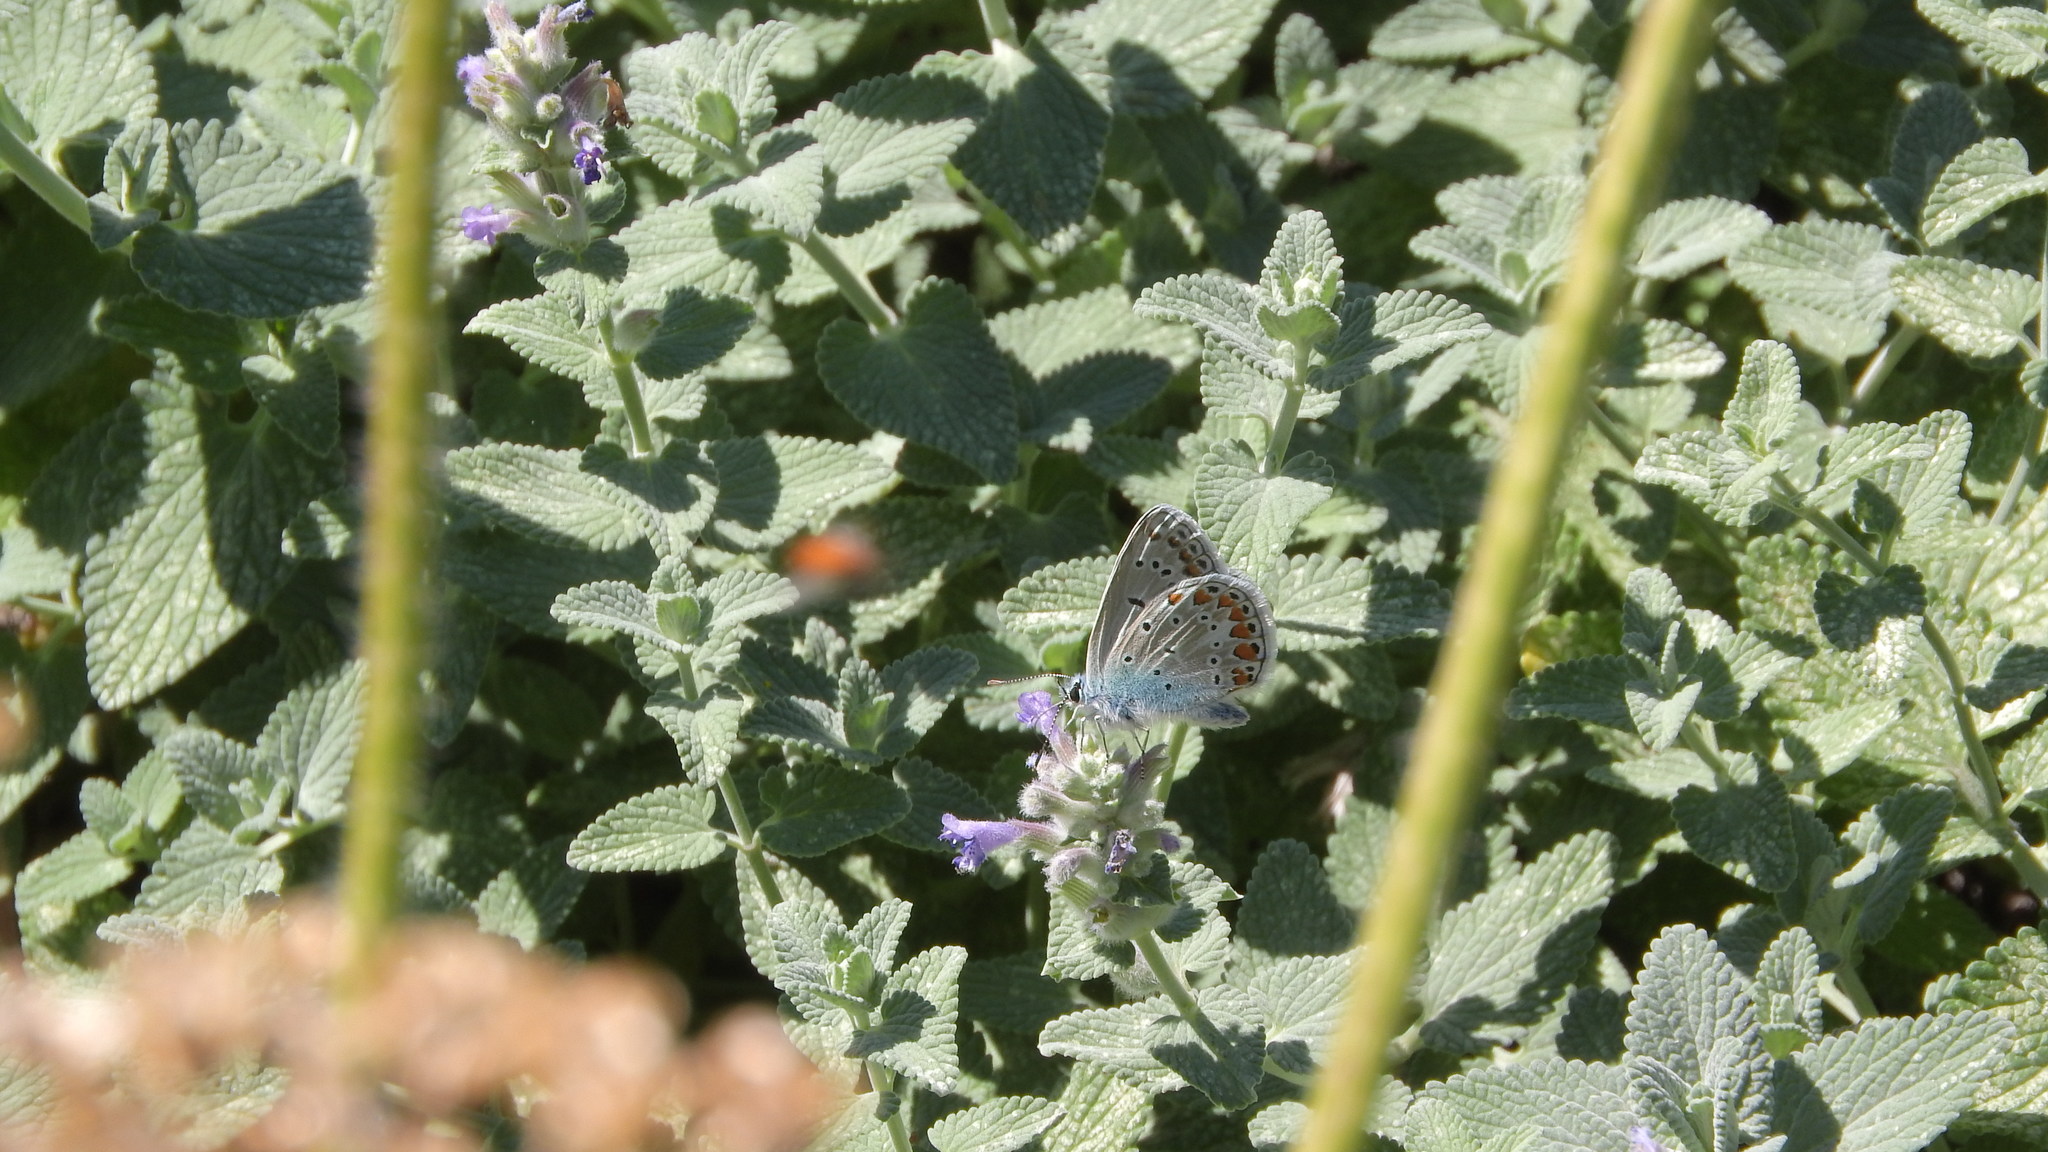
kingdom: Animalia
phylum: Arthropoda
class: Insecta
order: Lepidoptera
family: Lycaenidae
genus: Polyommatus
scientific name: Polyommatus icarus
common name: Common blue
